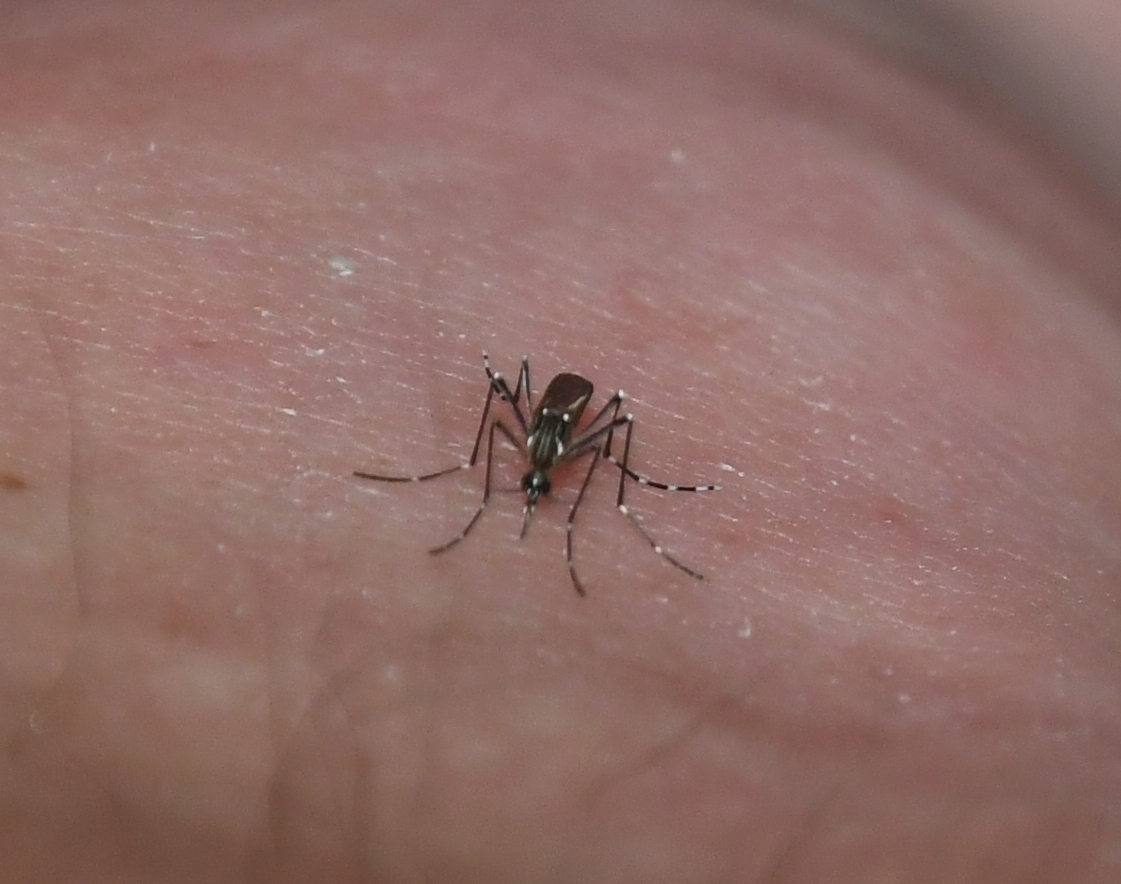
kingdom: Animalia
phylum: Arthropoda
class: Insecta
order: Diptera
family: Culicidae
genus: Aedes
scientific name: Aedes aegypti
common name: Yellow fever mosquito
